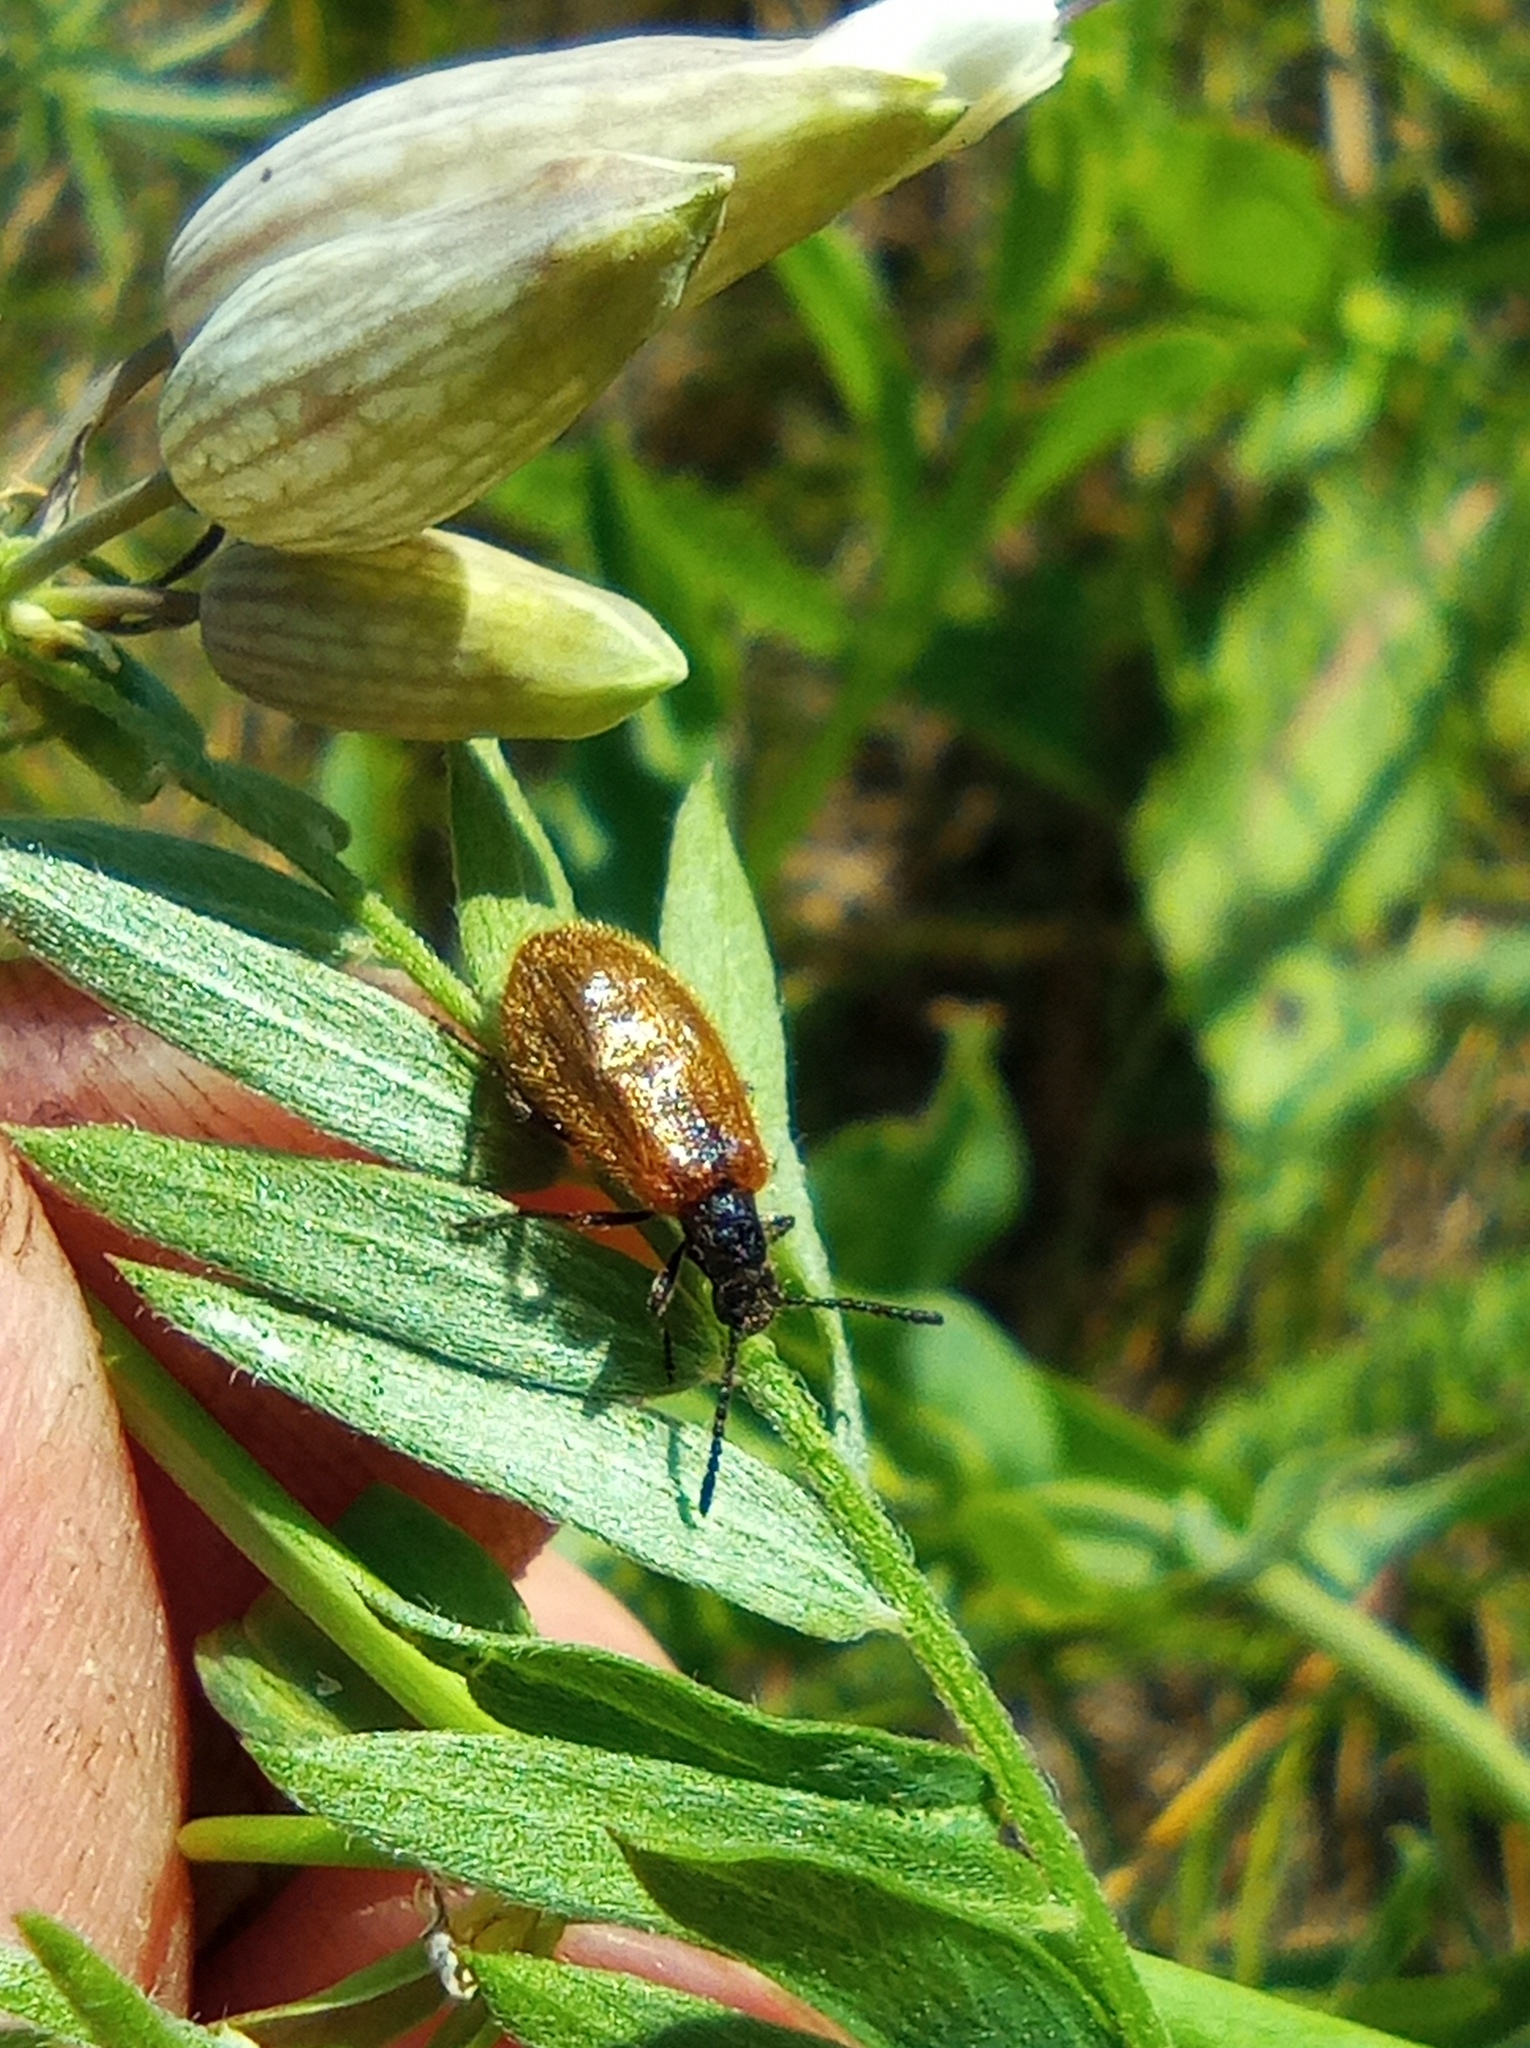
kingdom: Animalia
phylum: Arthropoda
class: Insecta
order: Coleoptera
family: Tenebrionidae
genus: Lagria
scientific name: Lagria hirta
